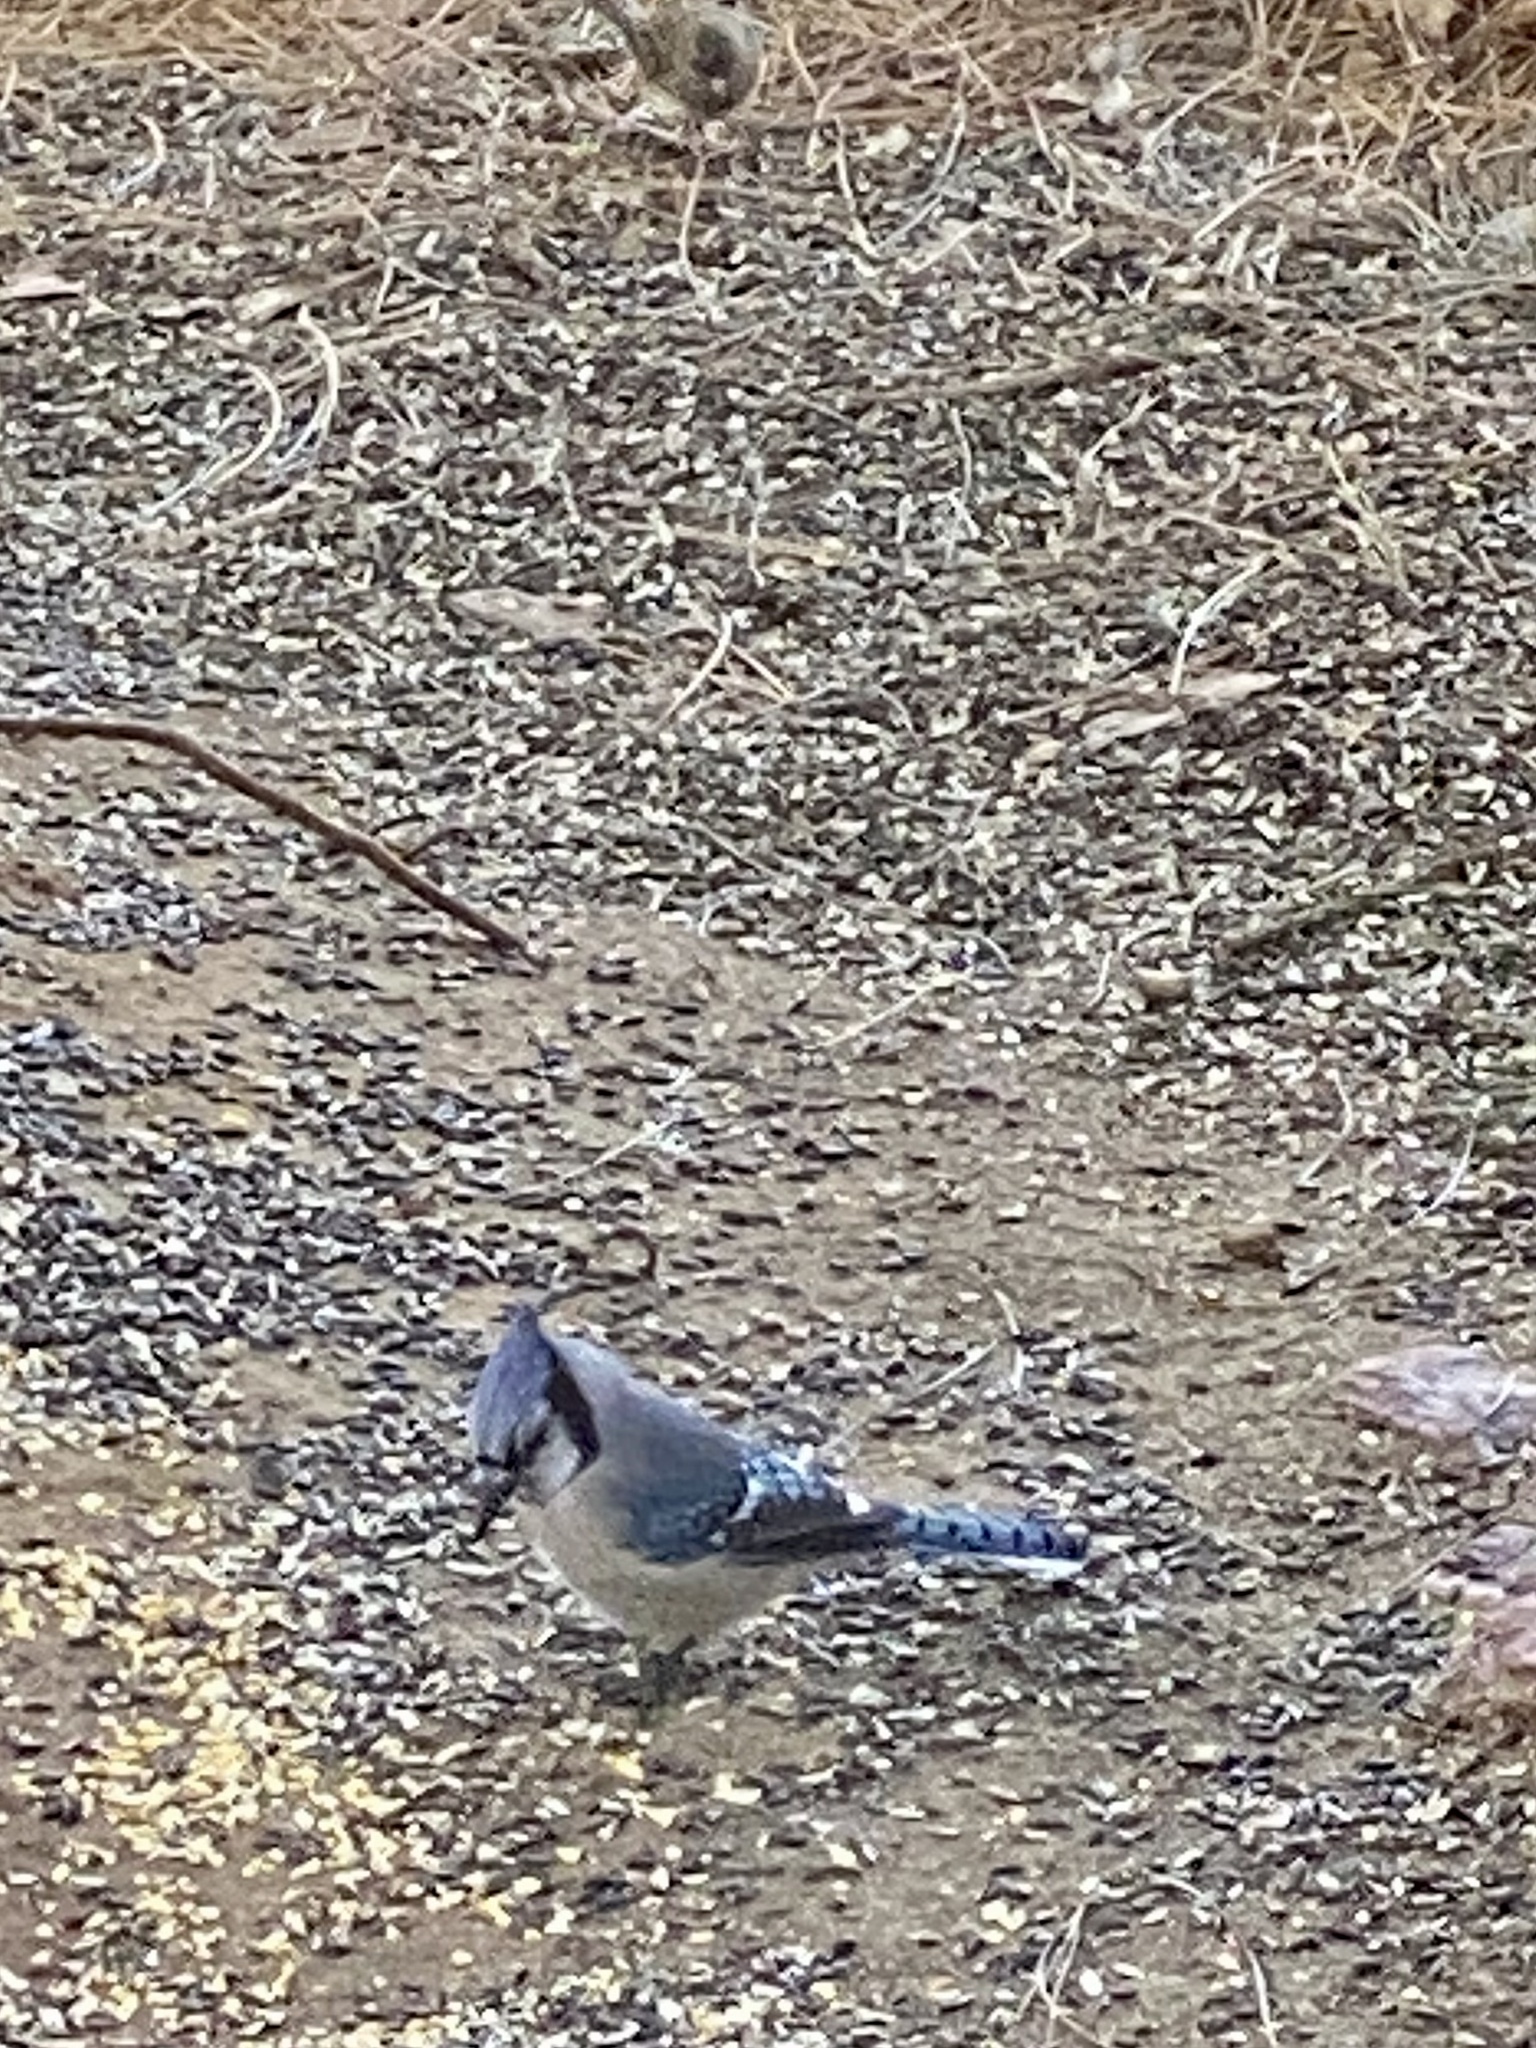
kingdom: Animalia
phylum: Chordata
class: Aves
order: Passeriformes
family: Corvidae
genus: Cyanocitta
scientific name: Cyanocitta cristata
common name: Blue jay
